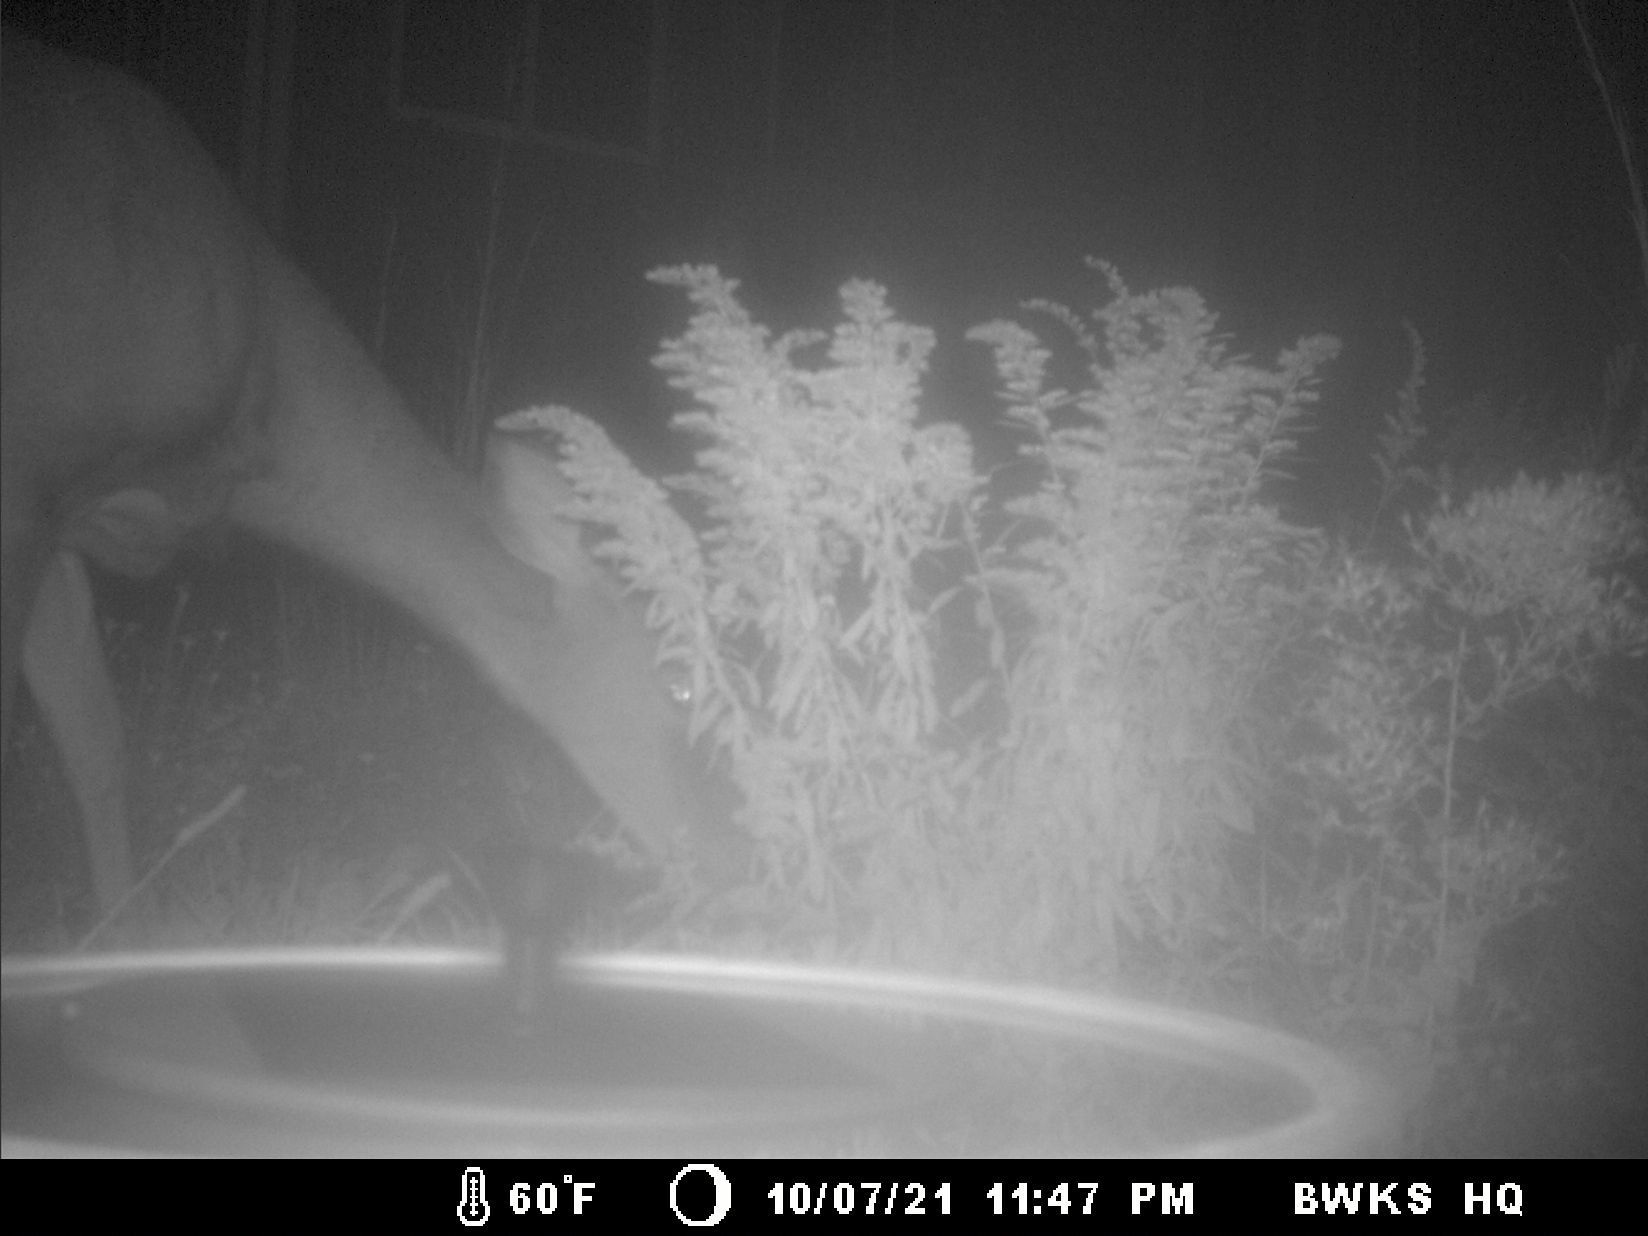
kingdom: Animalia
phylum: Chordata
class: Mammalia
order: Artiodactyla
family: Cervidae
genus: Odocoileus
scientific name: Odocoileus virginianus
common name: White-tailed deer
